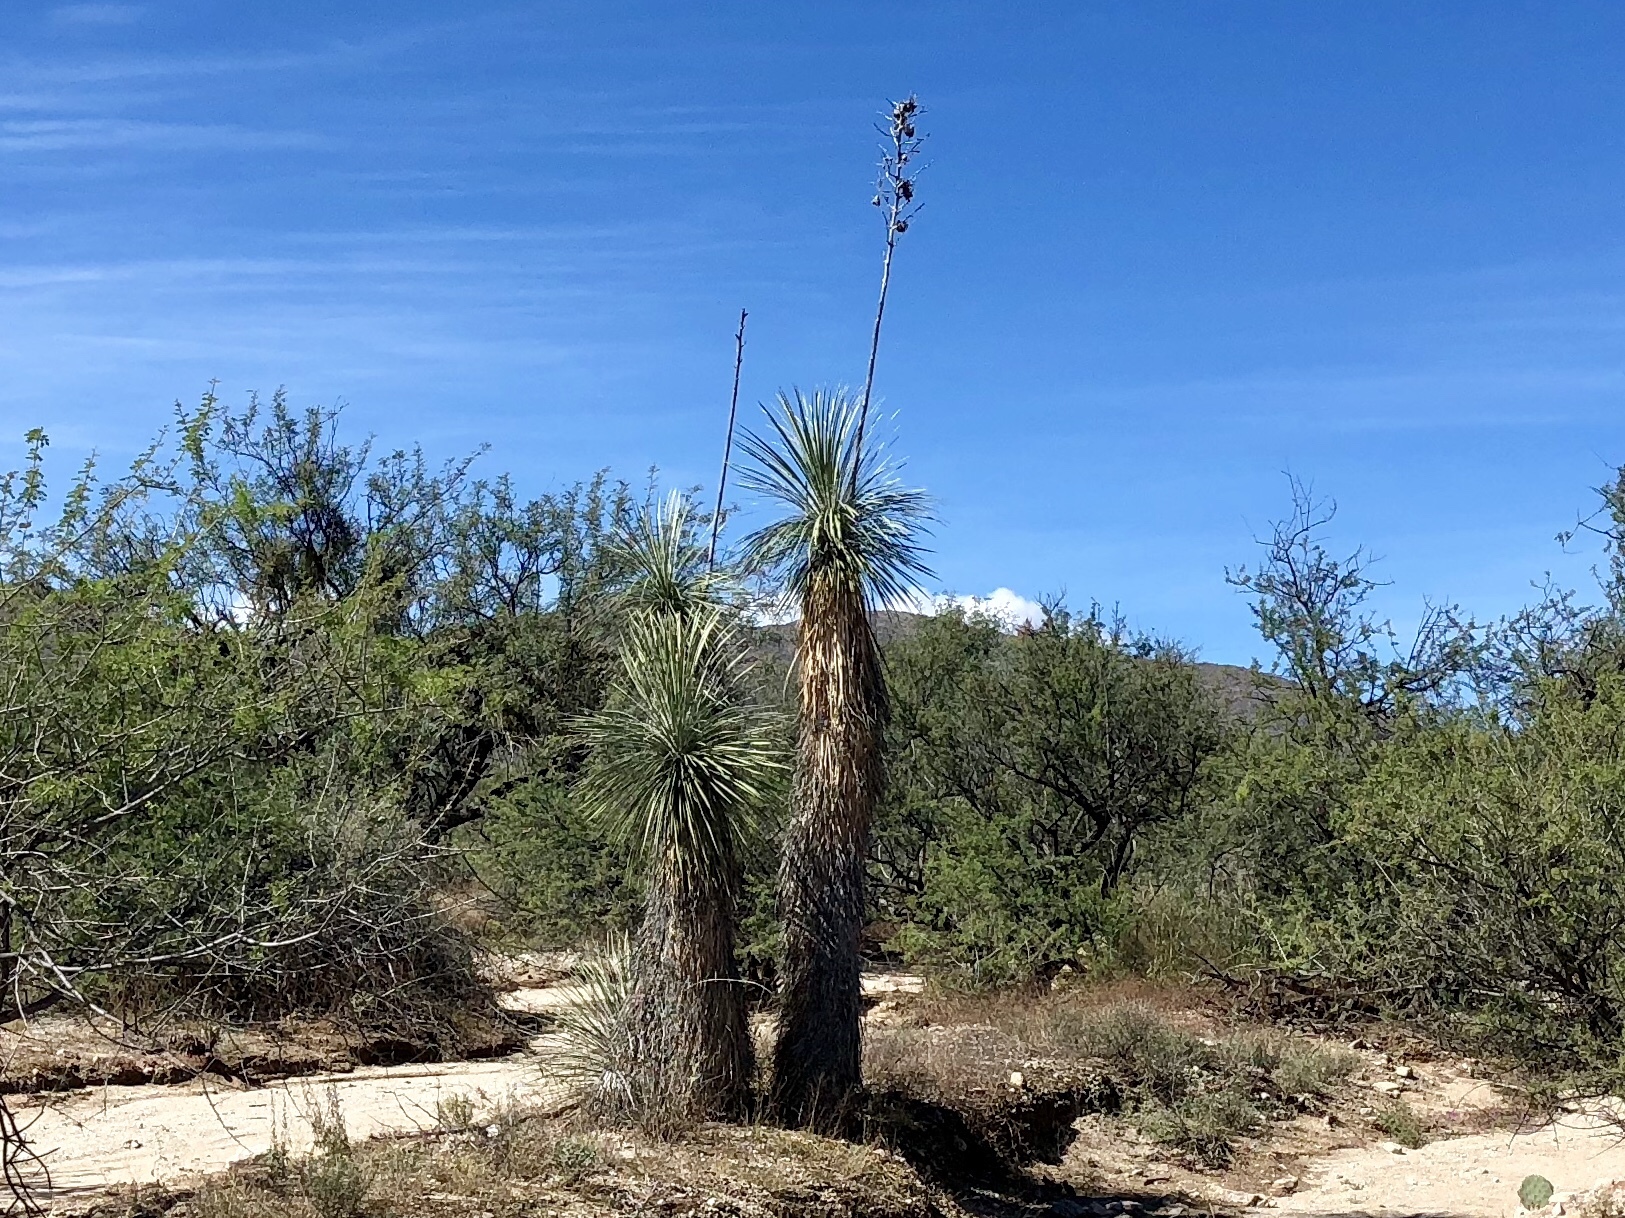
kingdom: Plantae
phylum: Tracheophyta
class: Liliopsida
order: Asparagales
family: Asparagaceae
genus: Yucca
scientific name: Yucca elata
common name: Palmella
